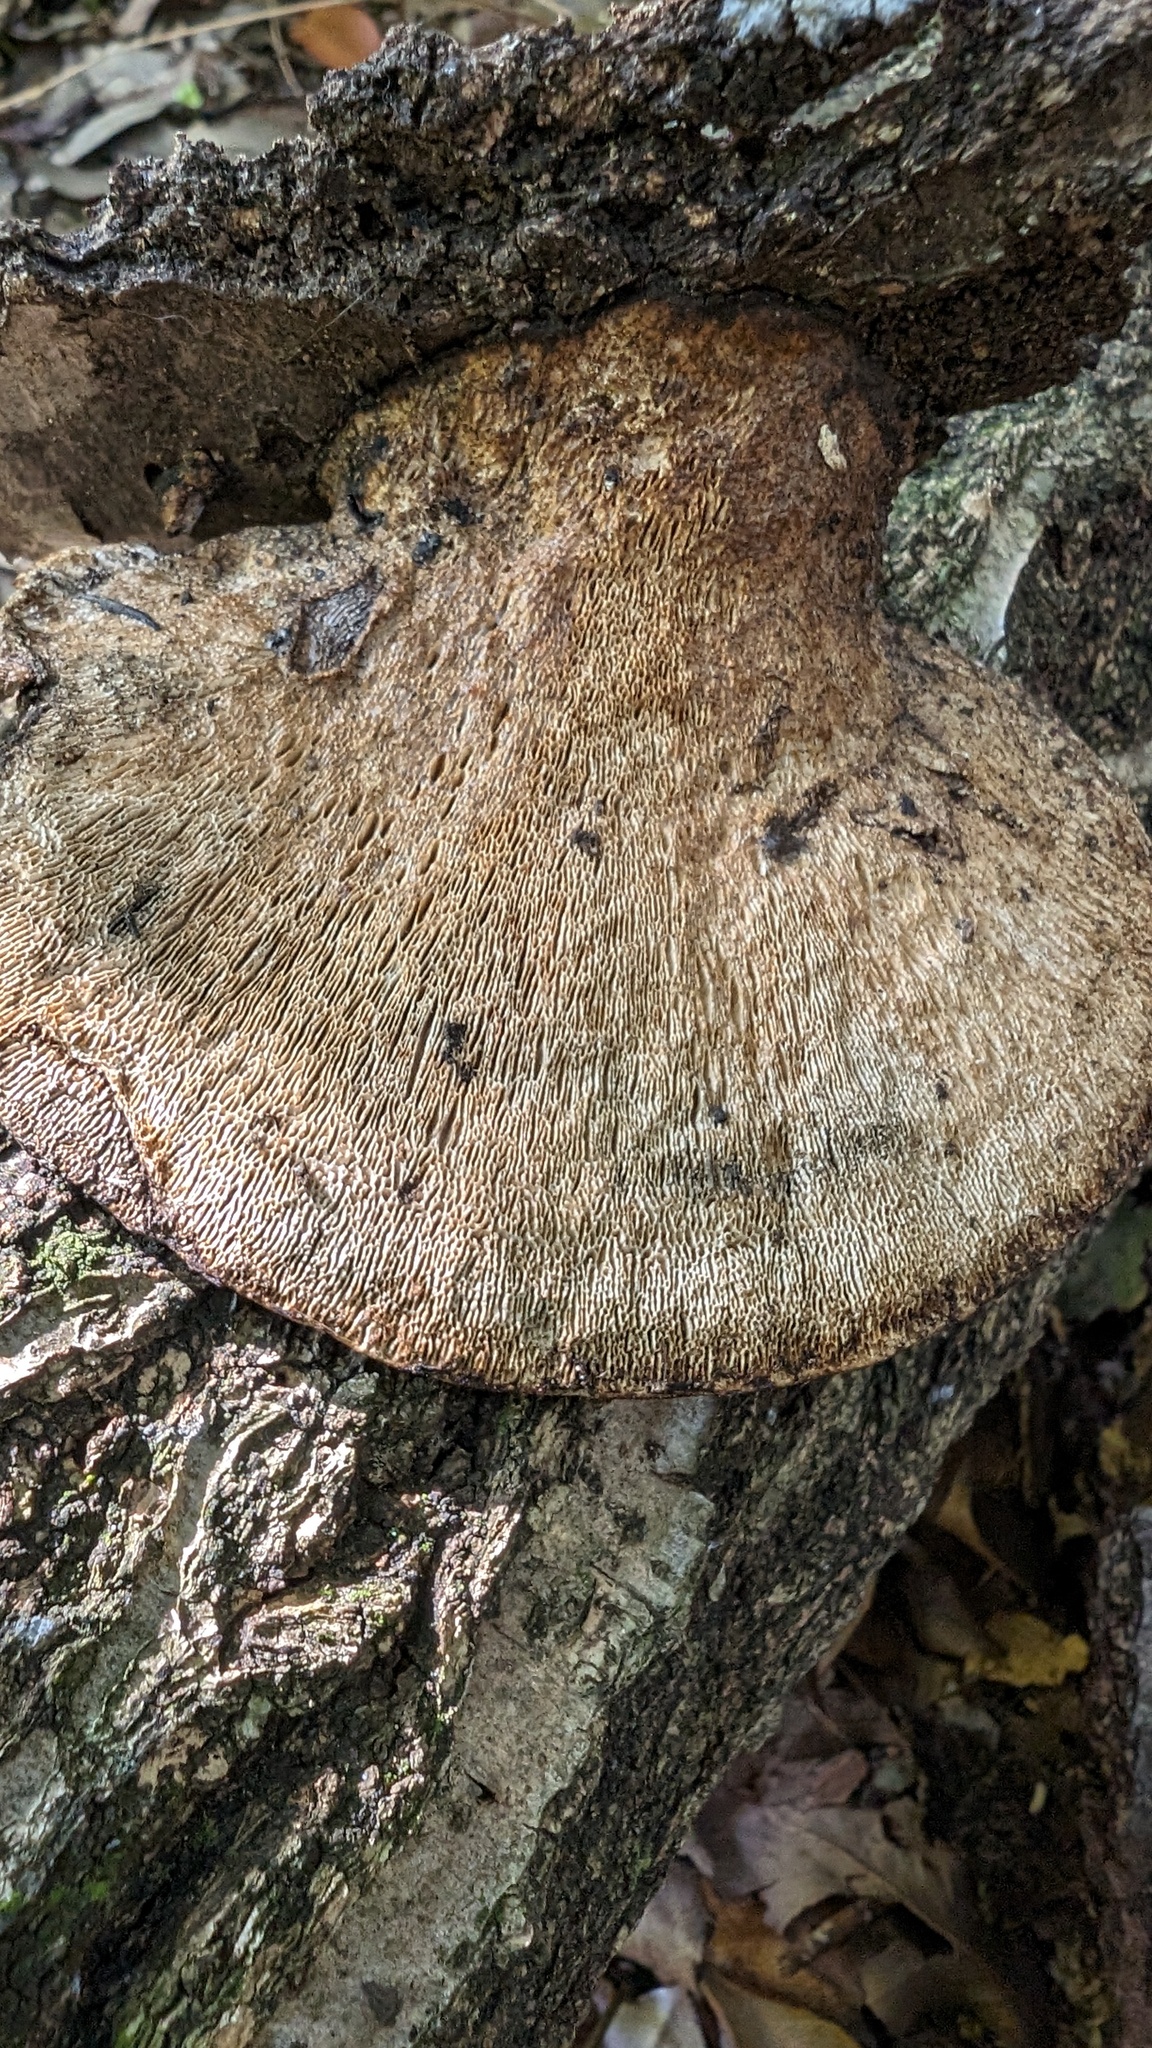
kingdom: Fungi
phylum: Basidiomycota
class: Agaricomycetes
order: Polyporales
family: Polyporaceae
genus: Trametes
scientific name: Trametes elegans
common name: White maze polypore
